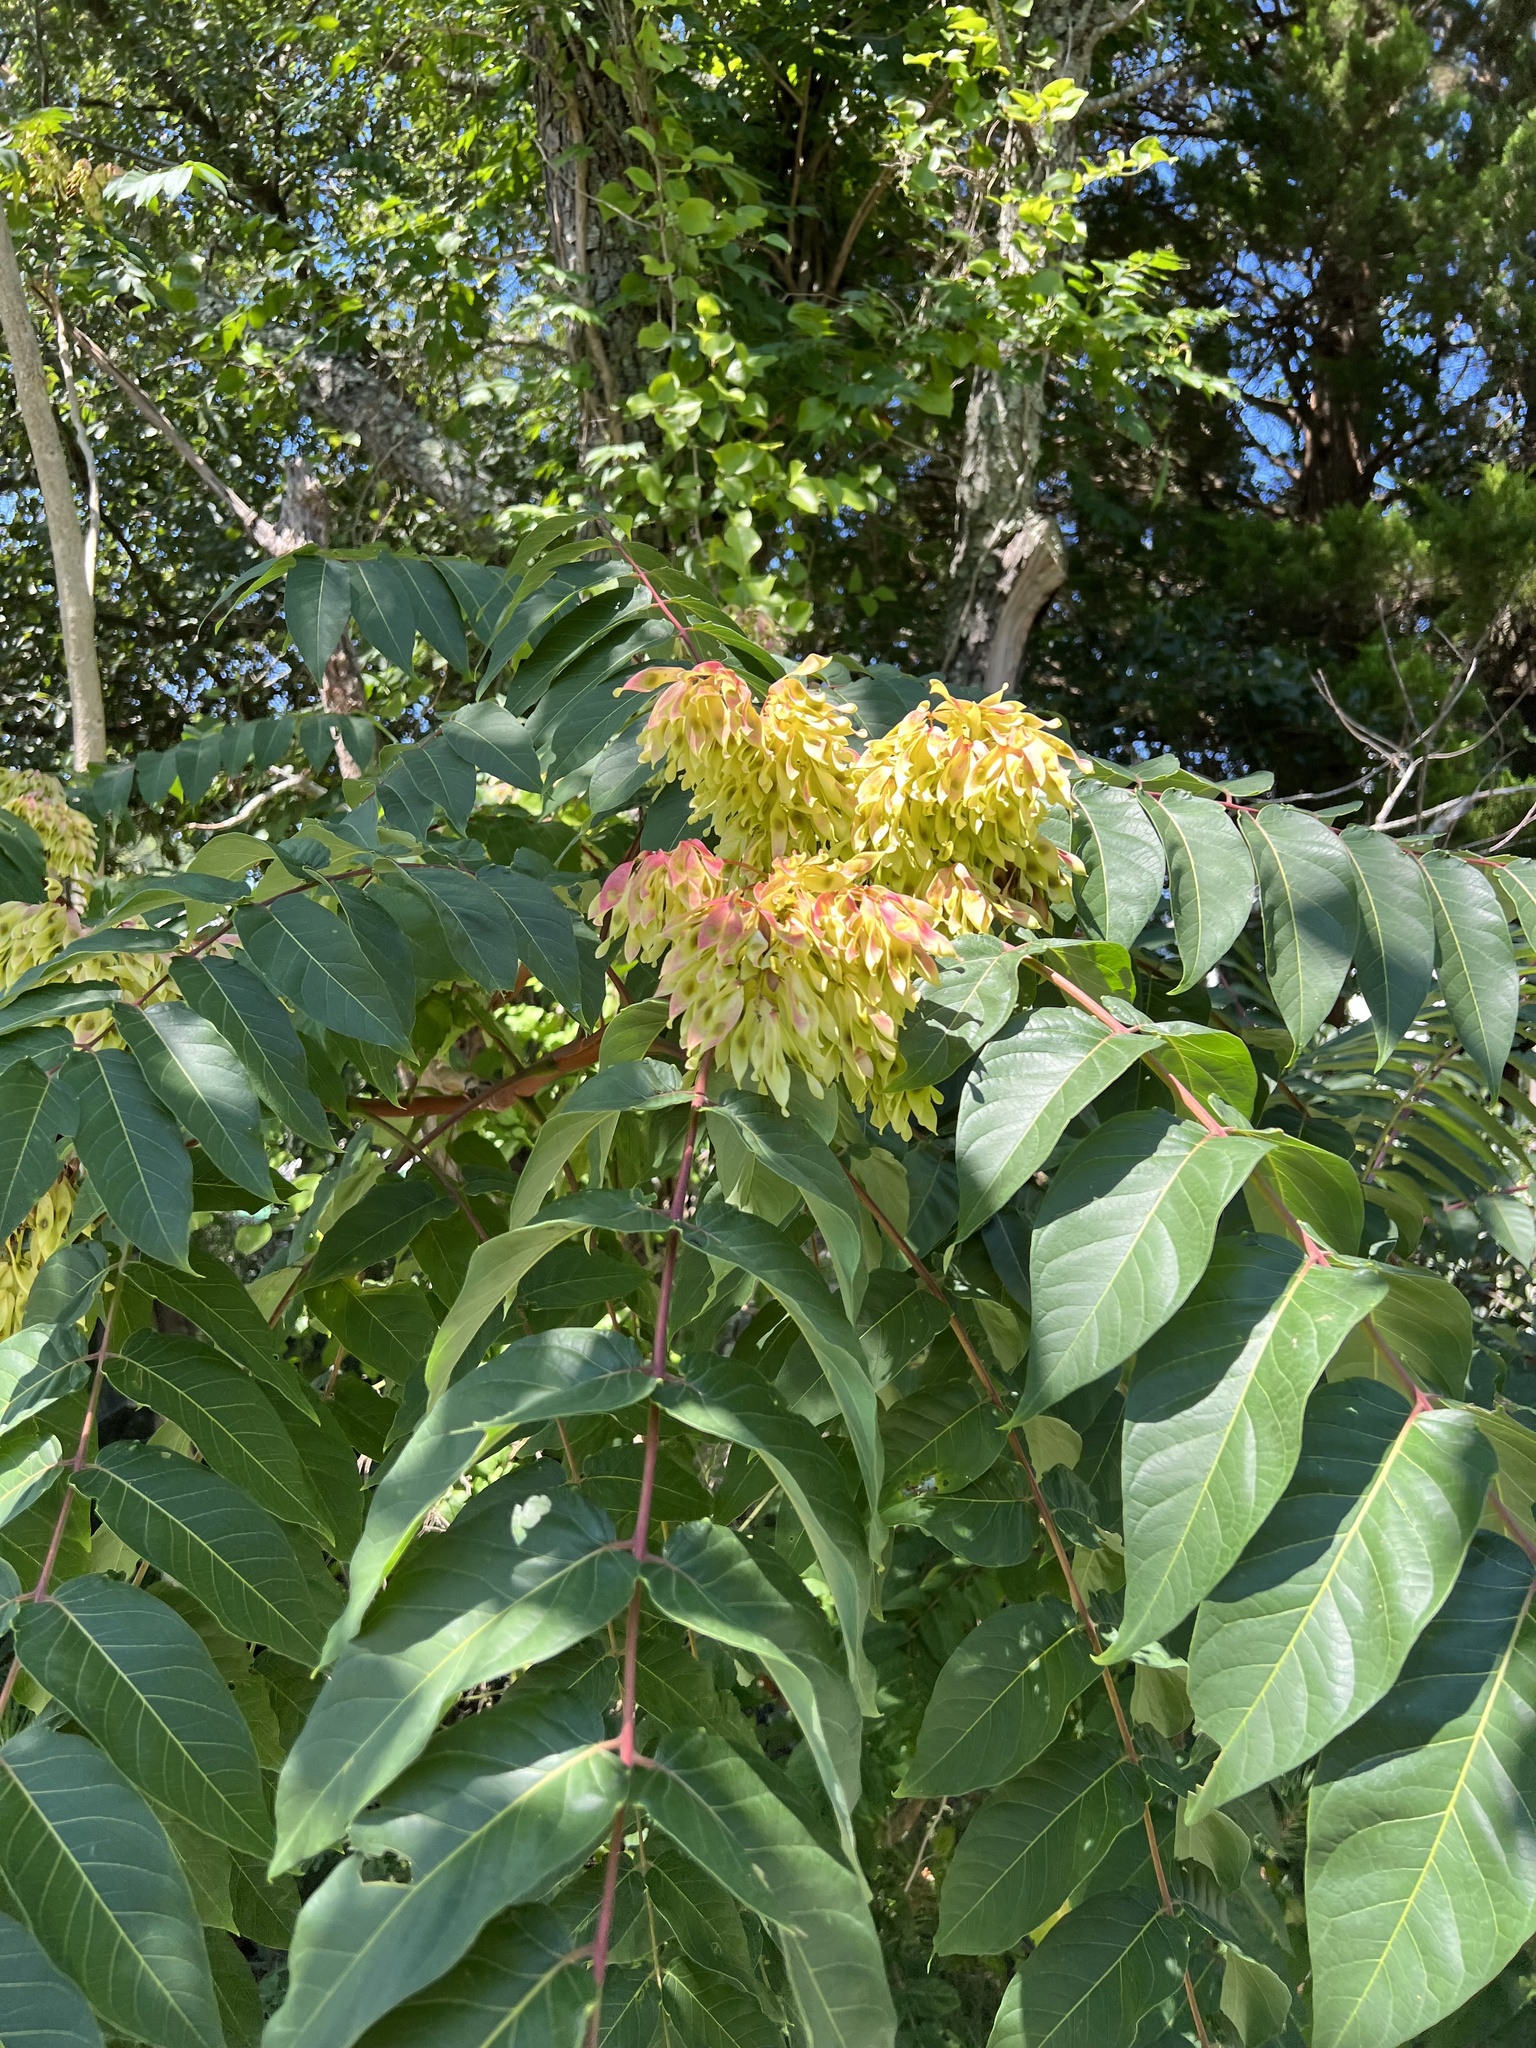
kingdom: Plantae
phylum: Tracheophyta
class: Magnoliopsida
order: Sapindales
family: Simaroubaceae
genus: Ailanthus
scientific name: Ailanthus altissima
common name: Tree-of-heaven
